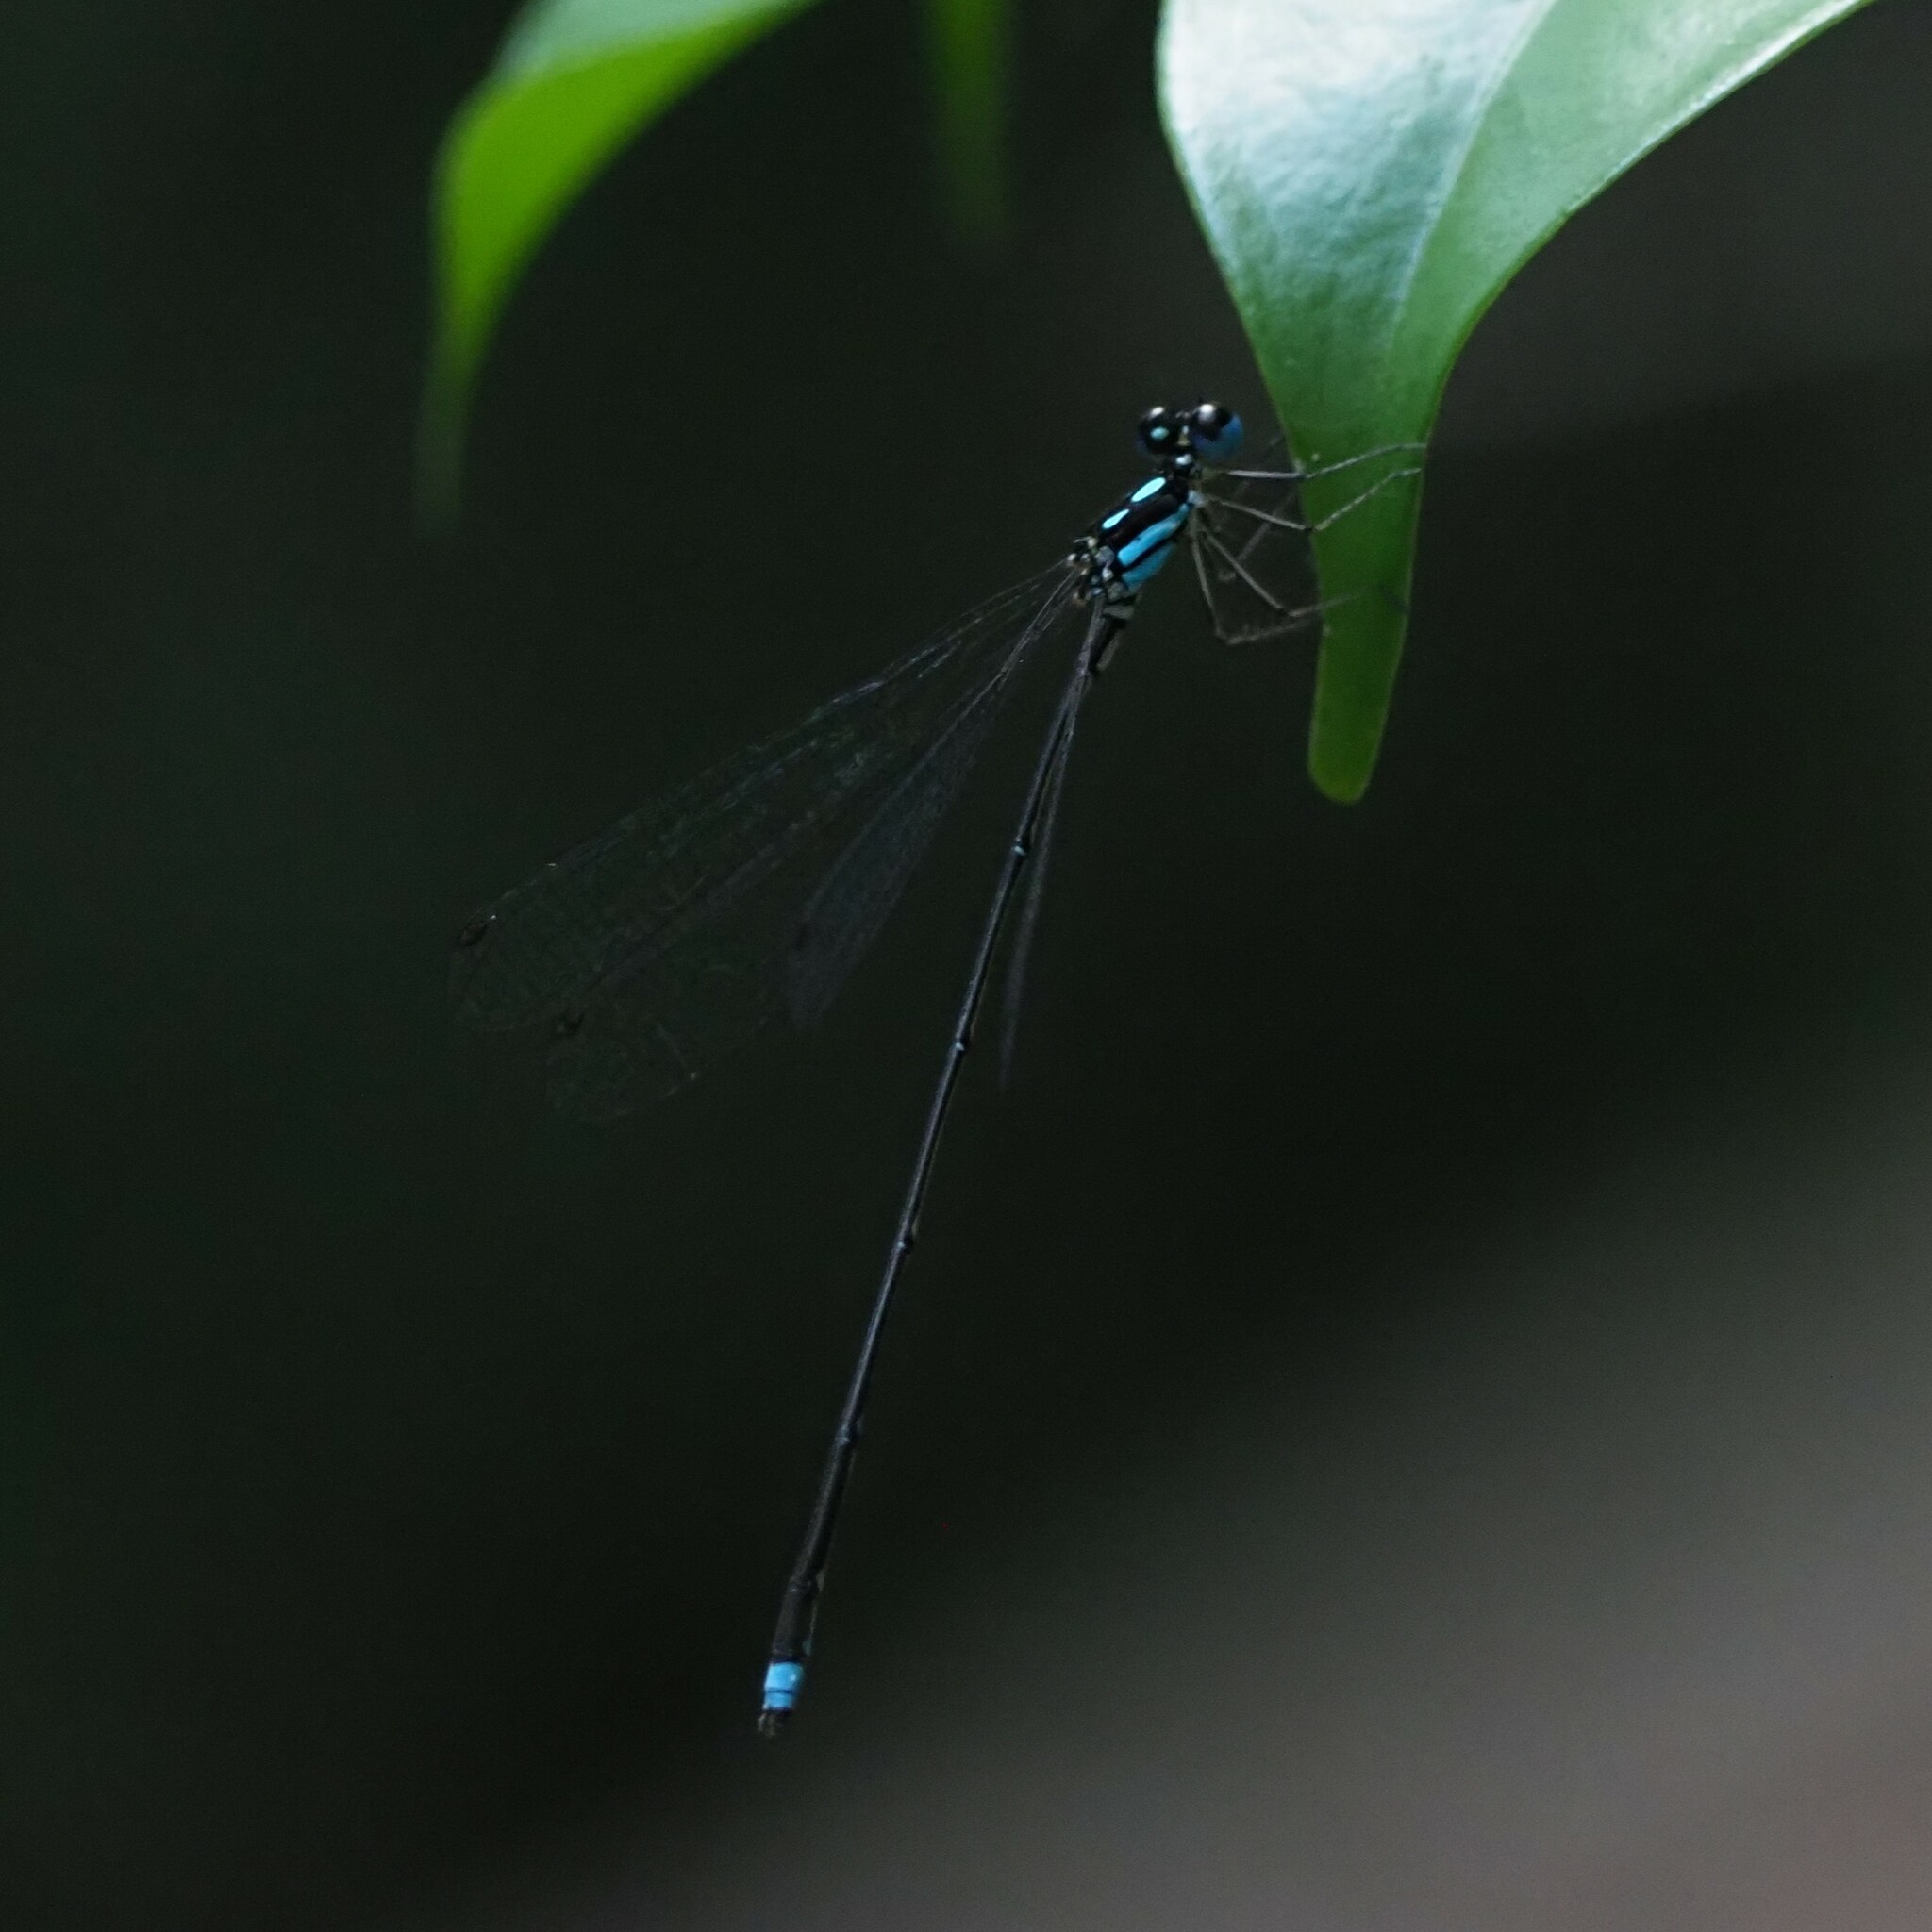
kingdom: Animalia
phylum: Arthropoda
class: Insecta
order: Odonata
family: Platycnemididae
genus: Coeliccia
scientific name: Coeliccia didyma
